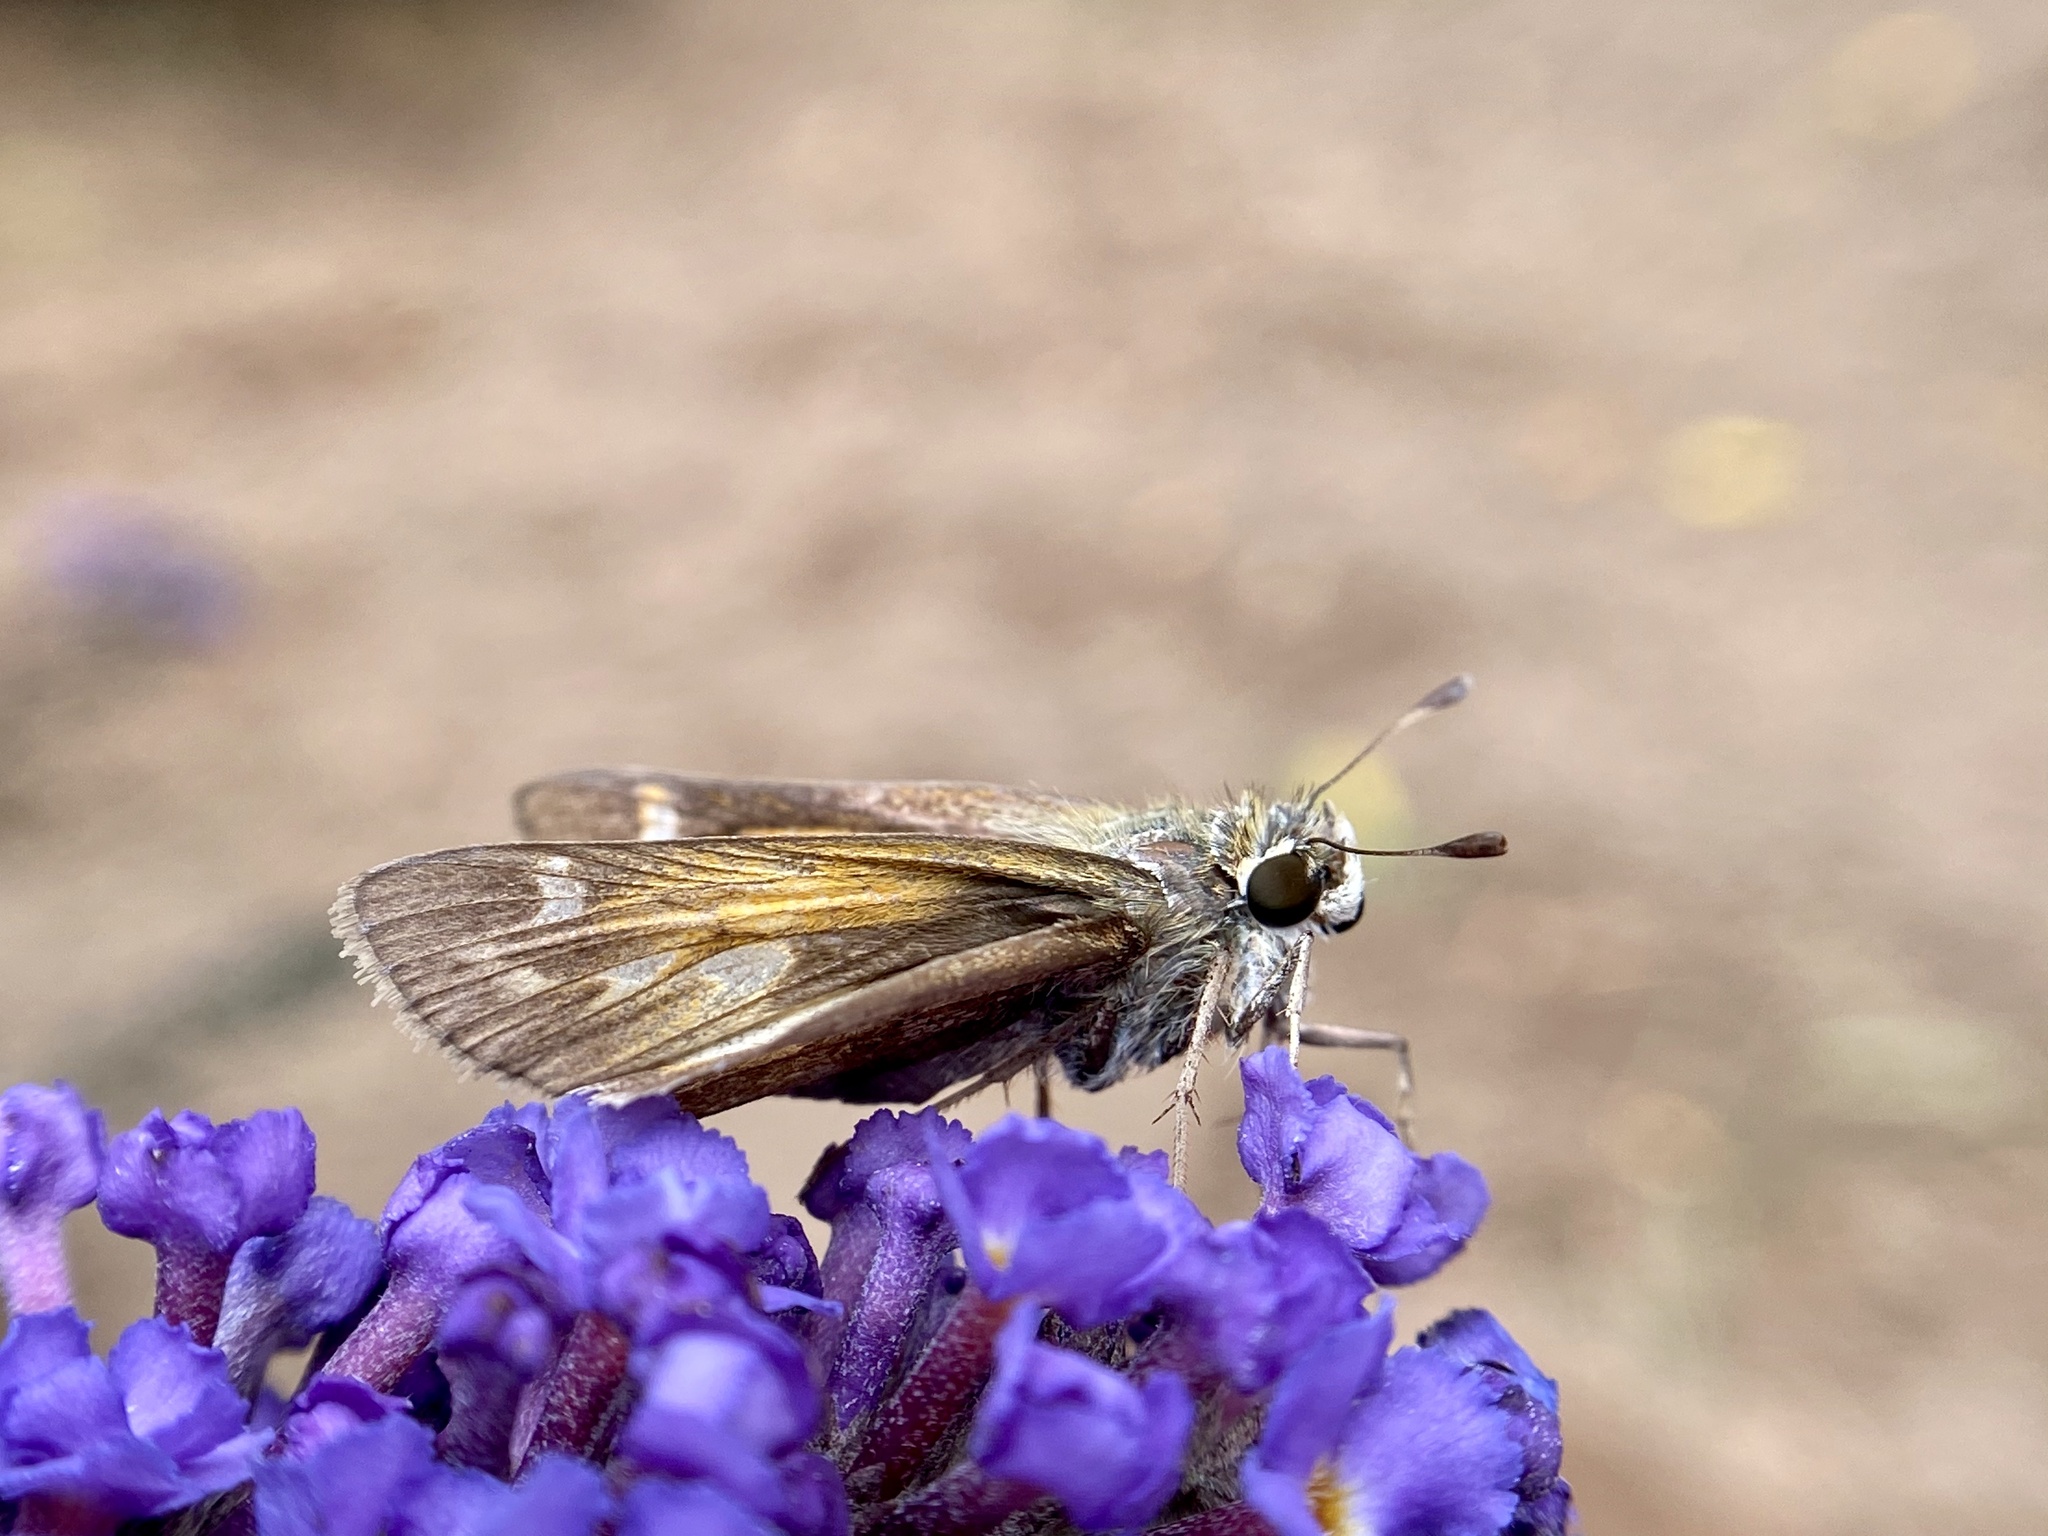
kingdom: Animalia
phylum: Arthropoda
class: Insecta
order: Lepidoptera
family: Hesperiidae
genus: Atalopedes
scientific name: Atalopedes
